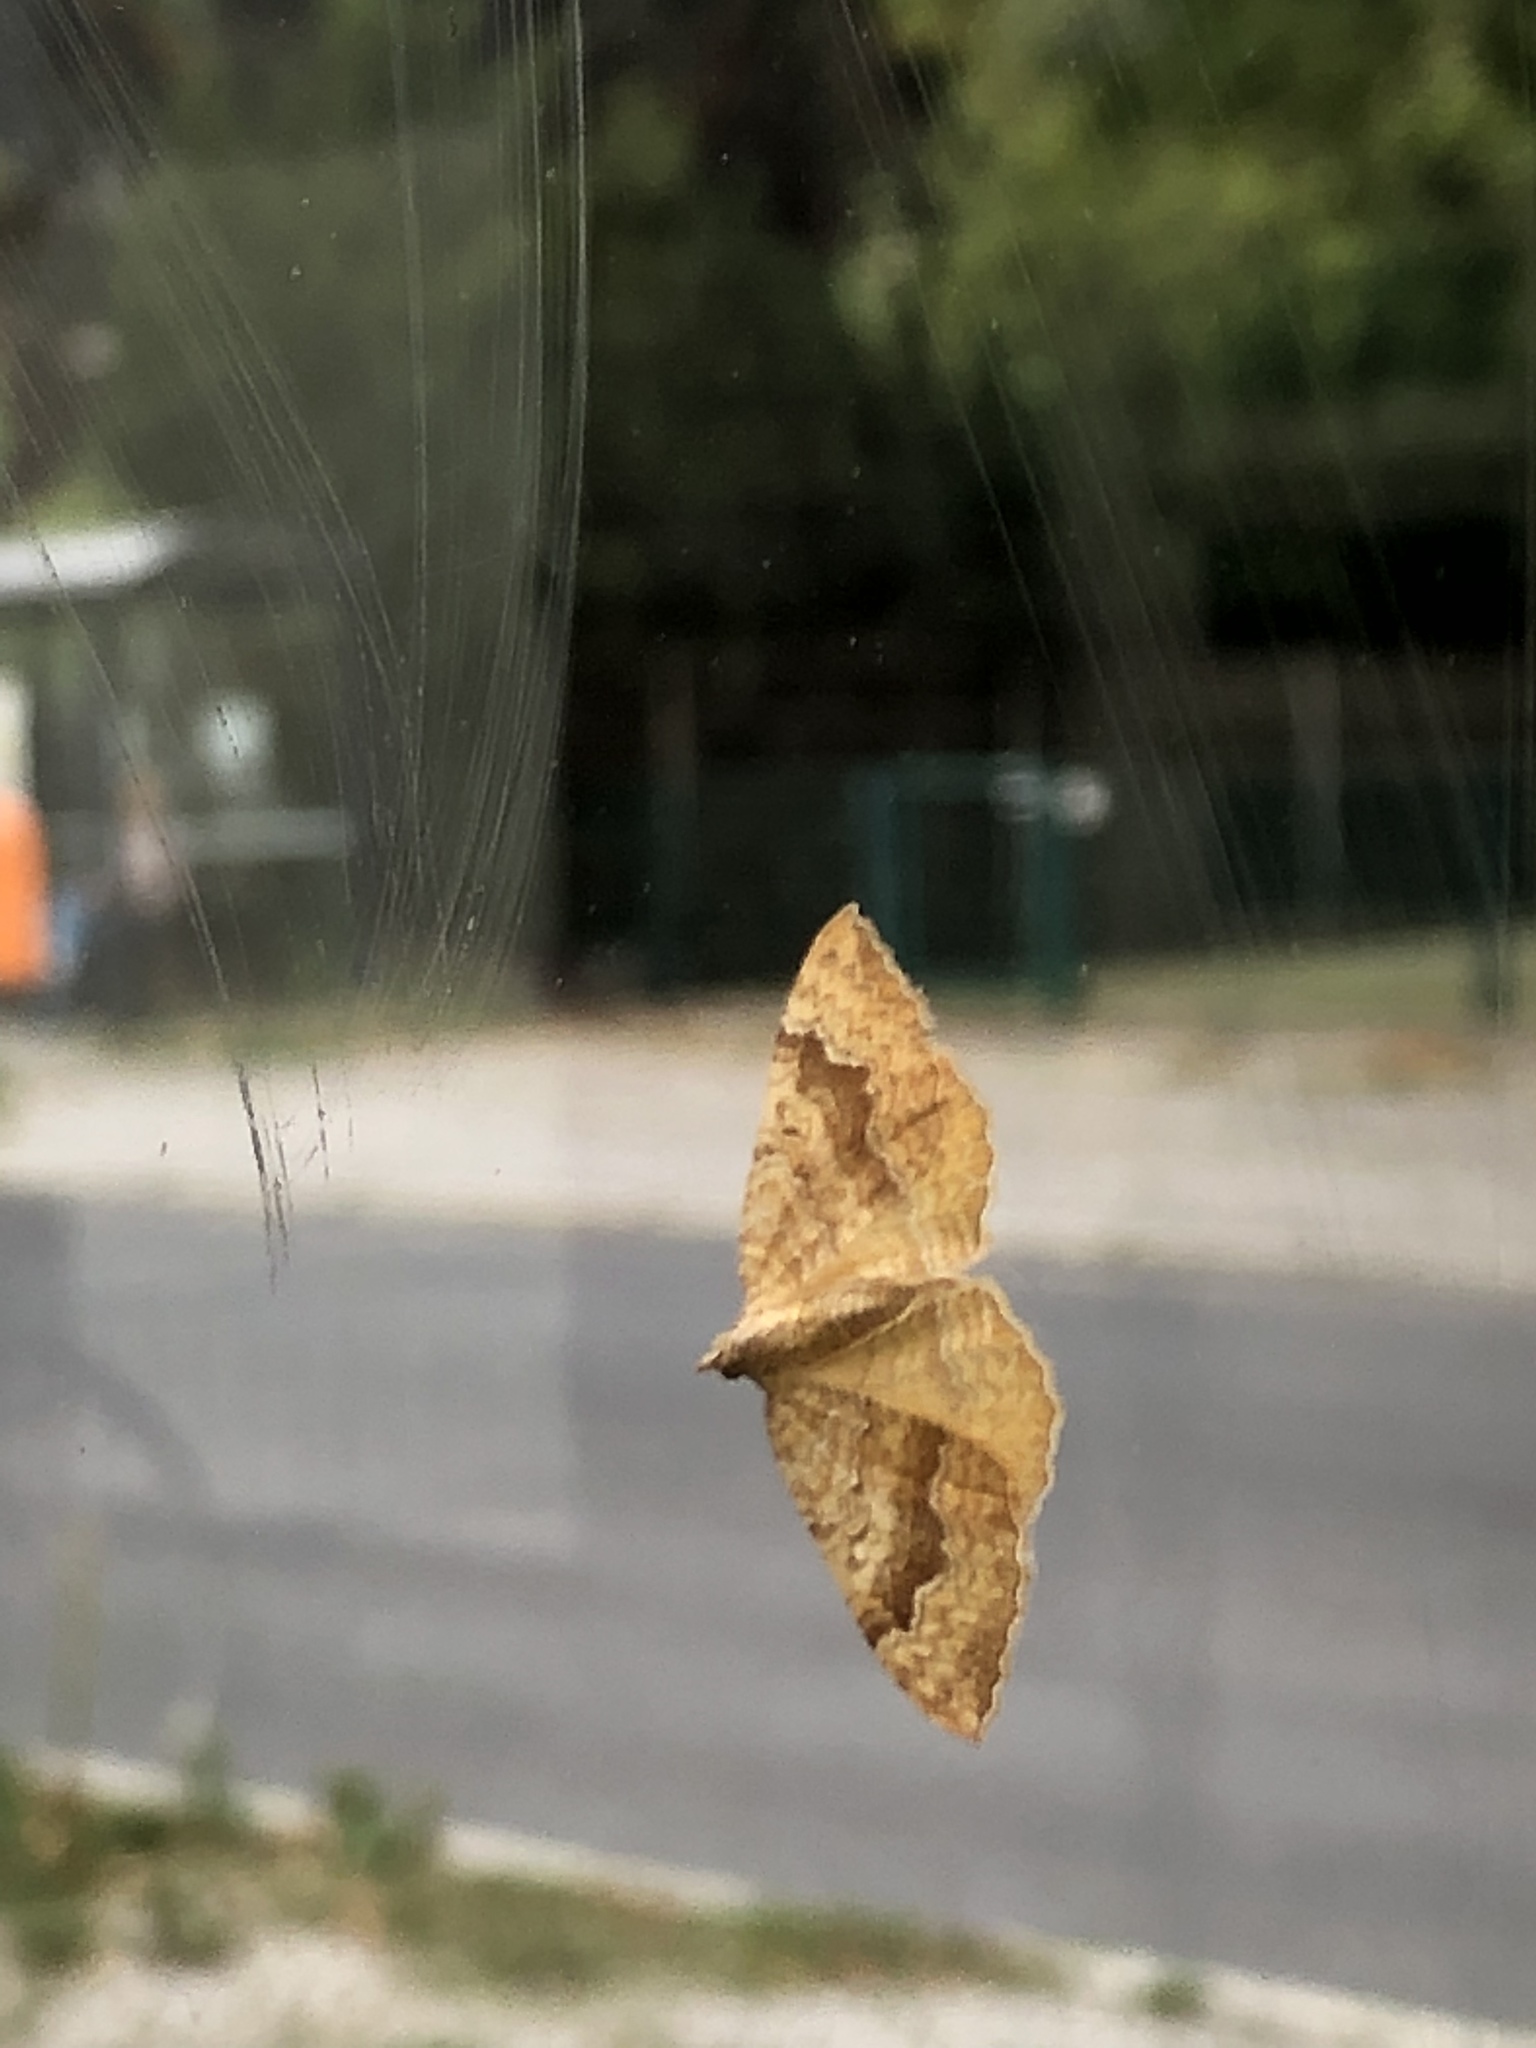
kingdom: Animalia
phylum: Arthropoda
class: Insecta
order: Lepidoptera
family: Geometridae
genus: Camptogramma
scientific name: Camptogramma bilineata
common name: Yellow shell
